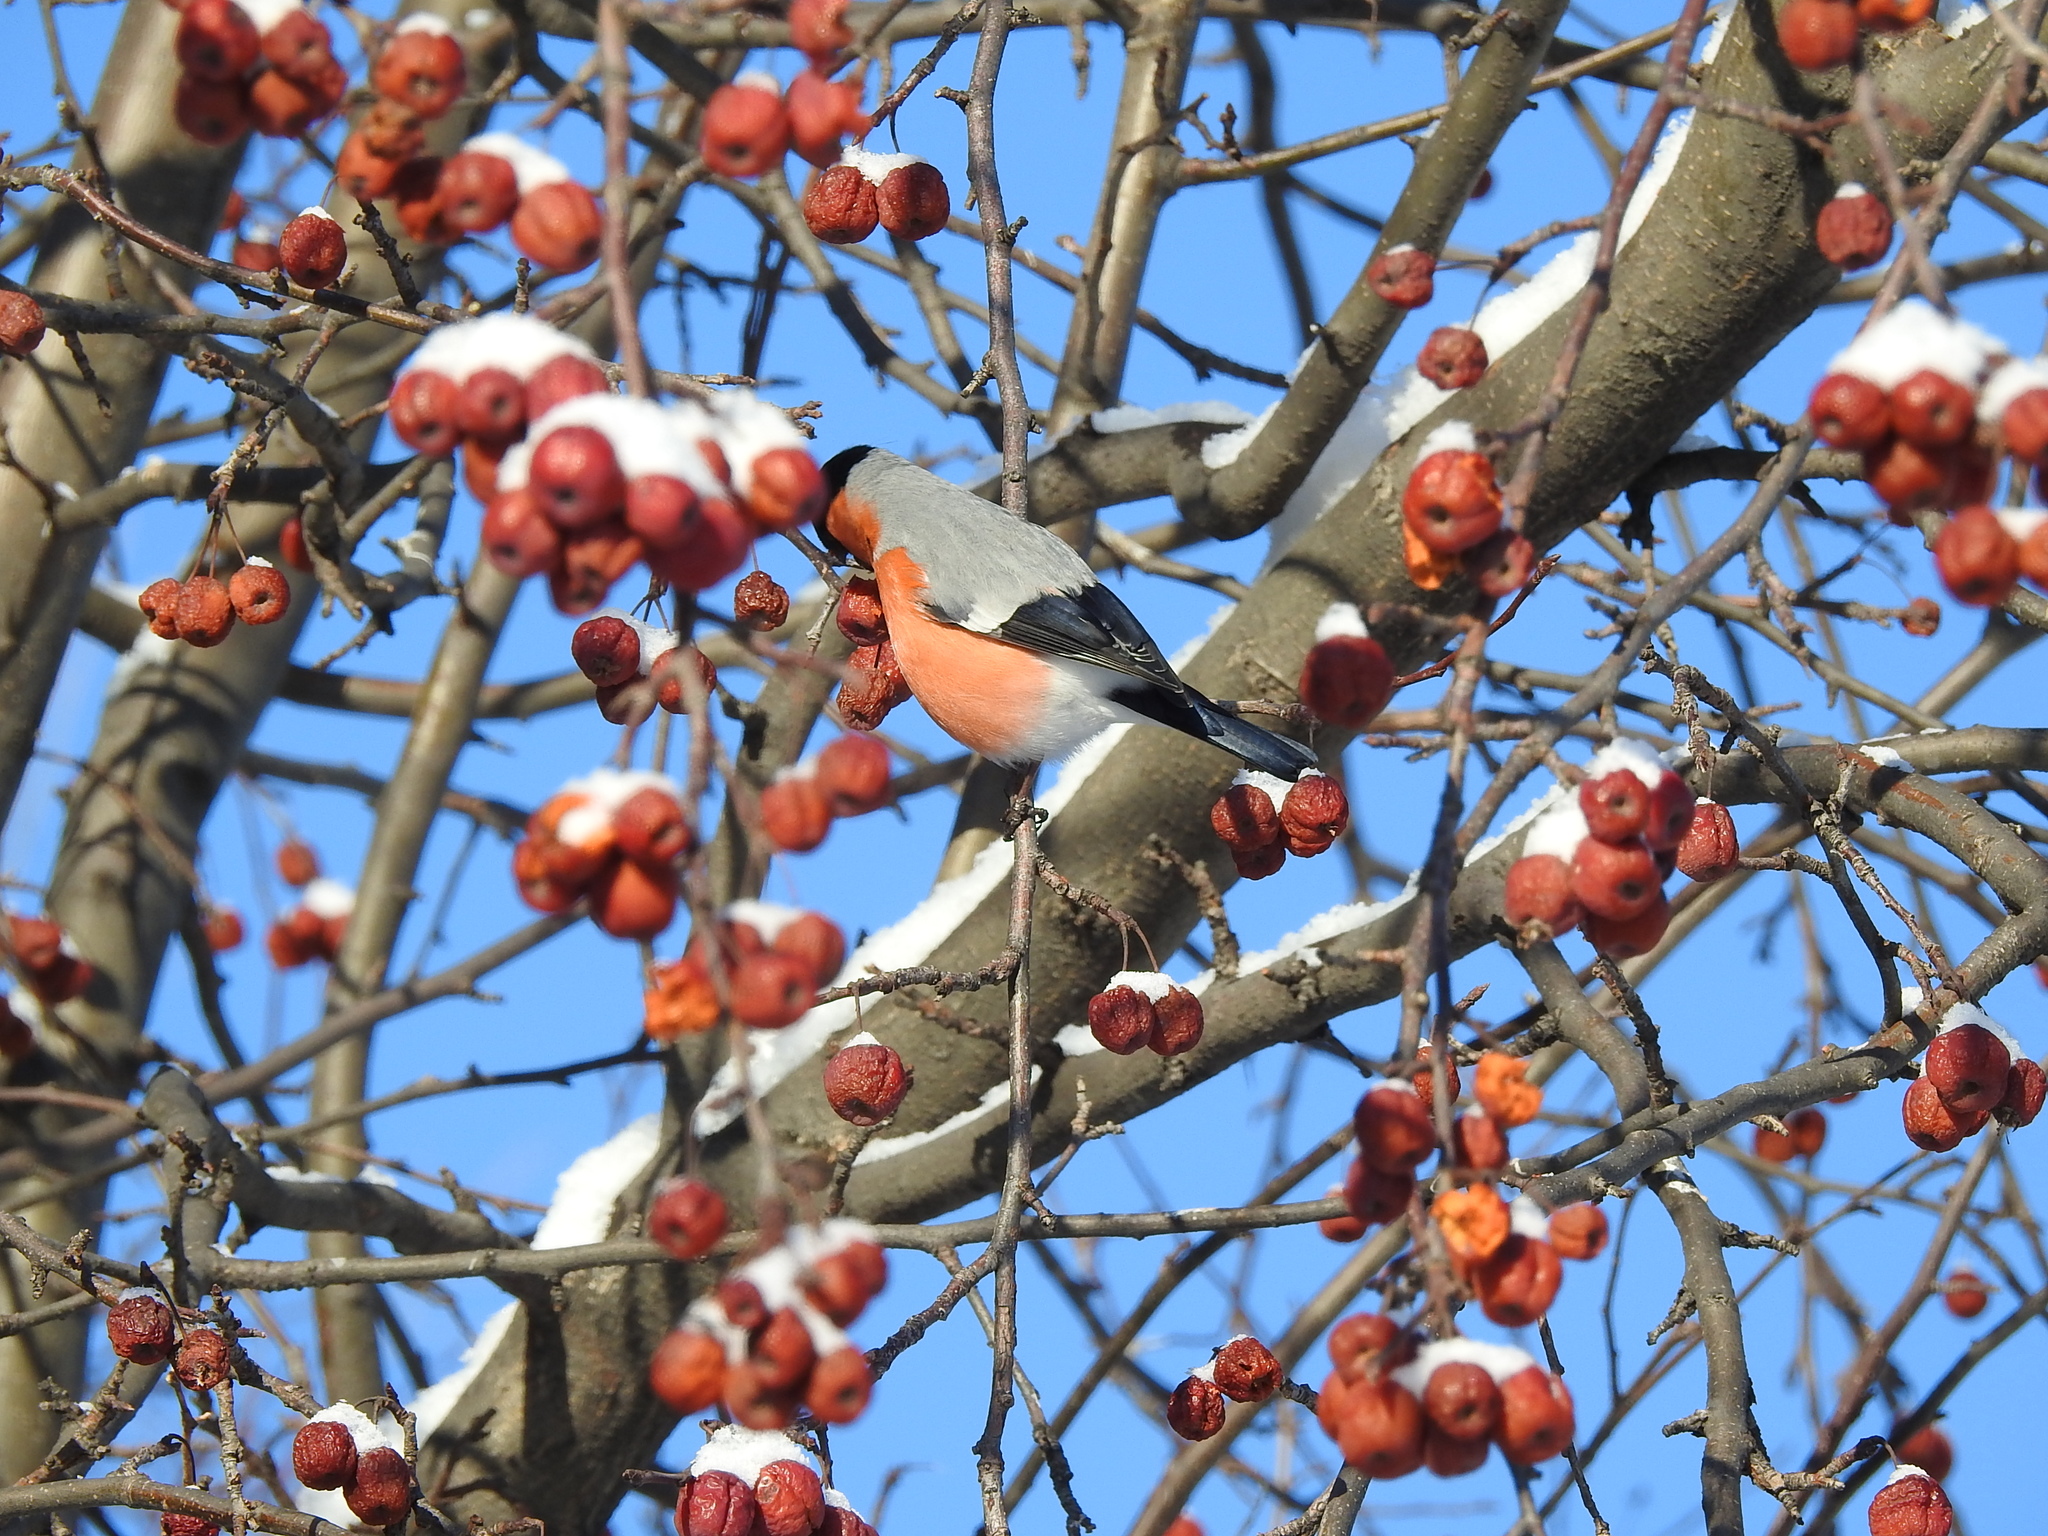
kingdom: Animalia
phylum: Chordata
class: Aves
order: Passeriformes
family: Fringillidae
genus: Pyrrhula
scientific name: Pyrrhula pyrrhula
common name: Eurasian bullfinch
